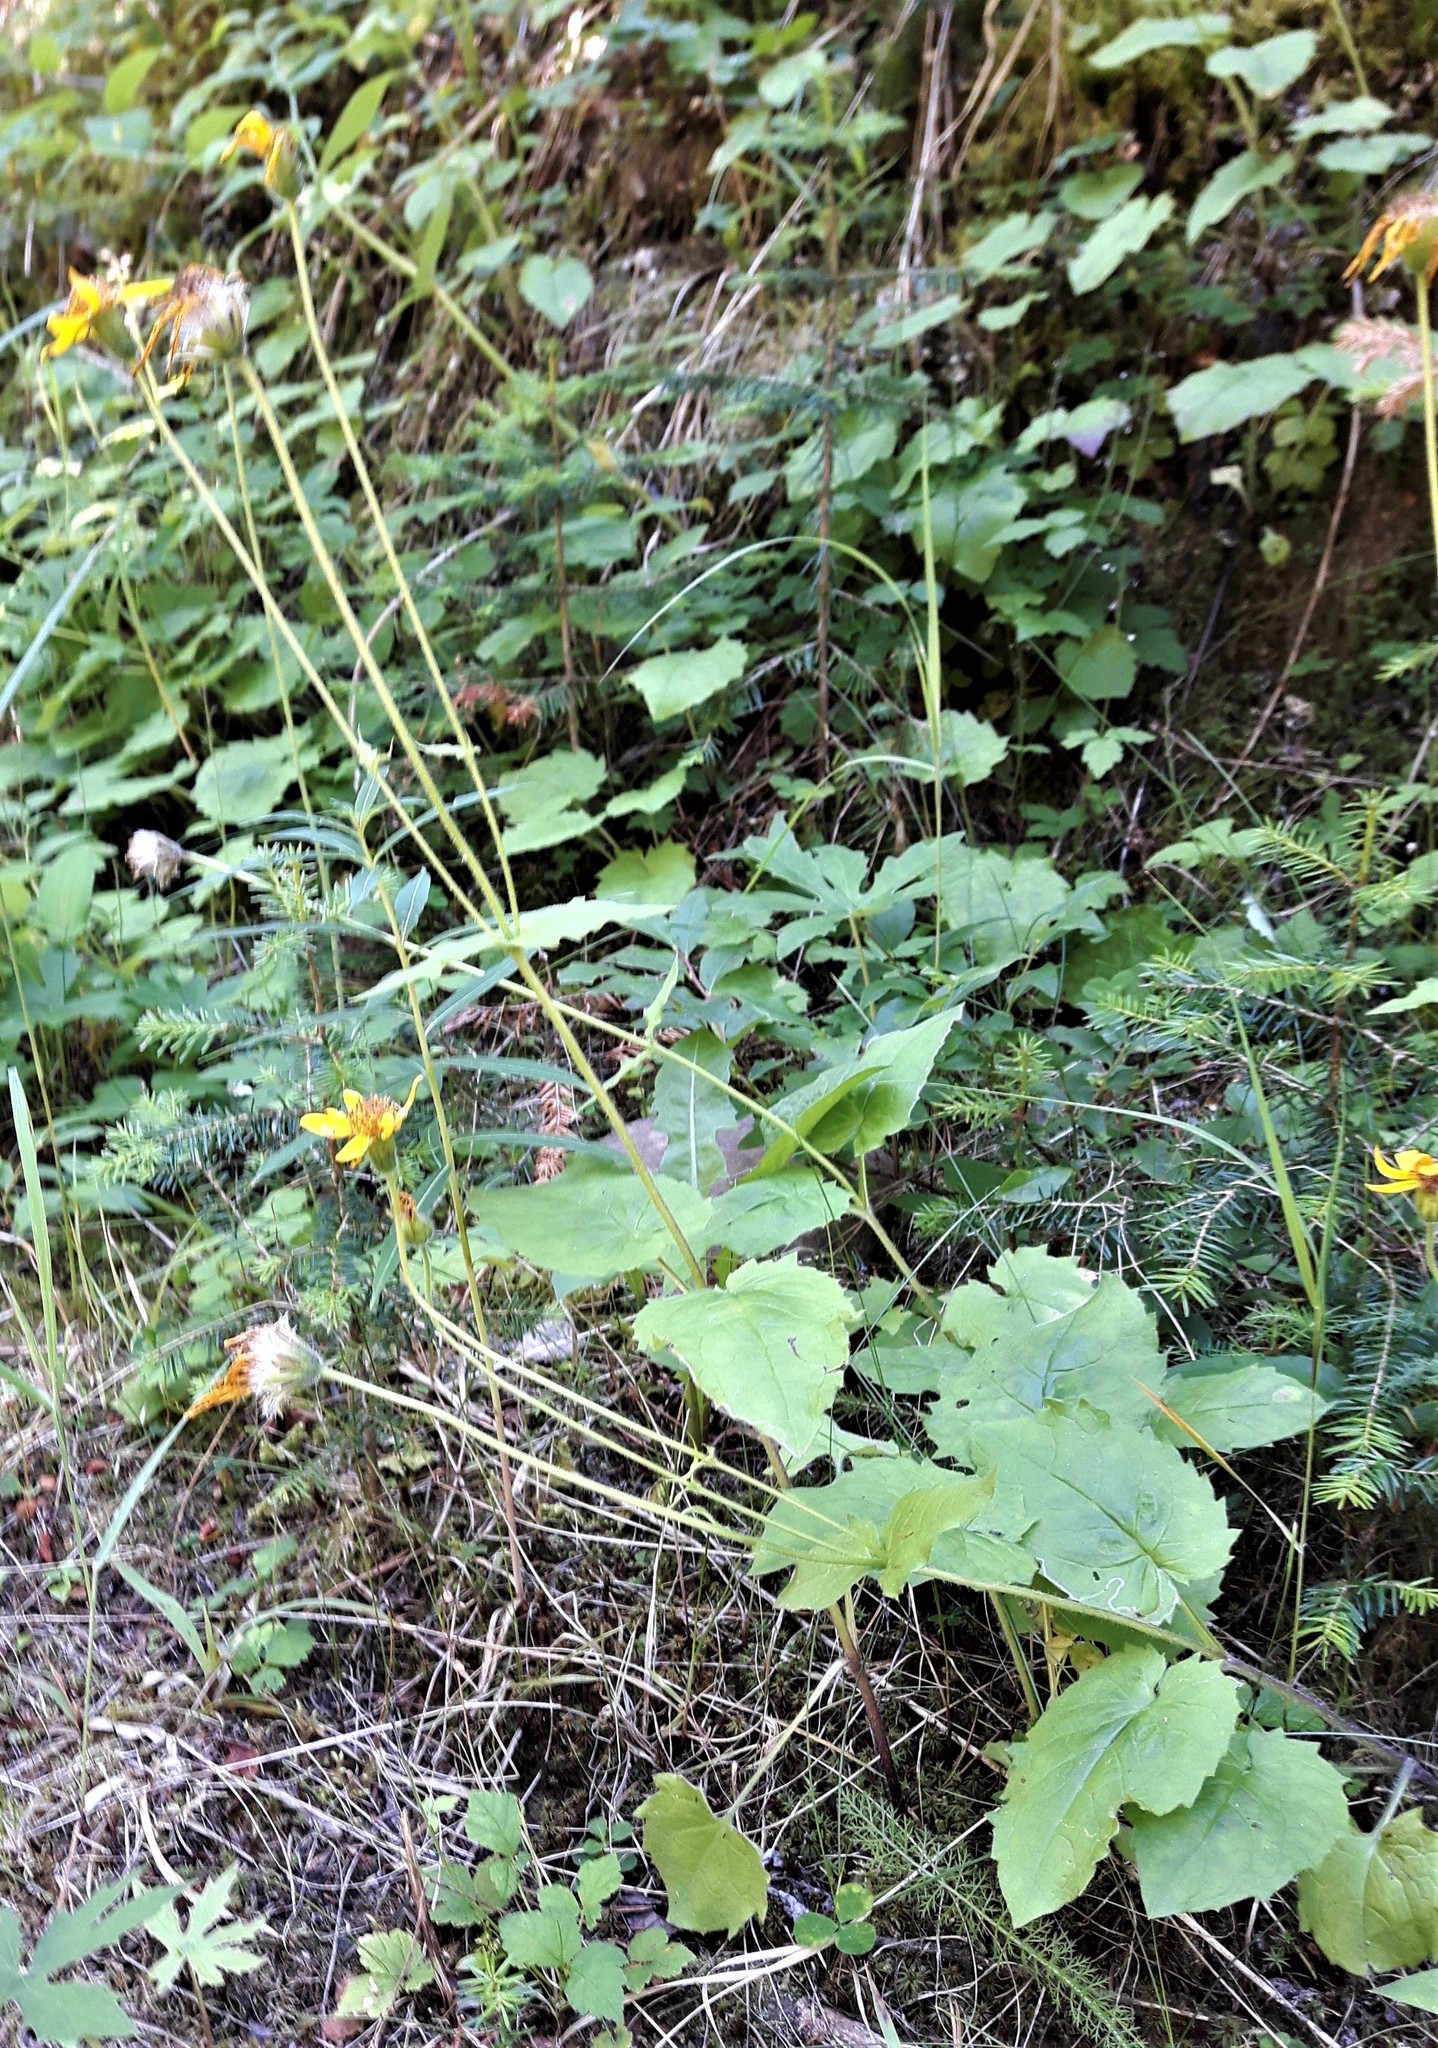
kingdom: Plantae
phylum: Tracheophyta
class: Magnoliopsida
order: Asterales
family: Asteraceae
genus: Arnica
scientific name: Arnica cordifolia
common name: Heart-leaf arnica
